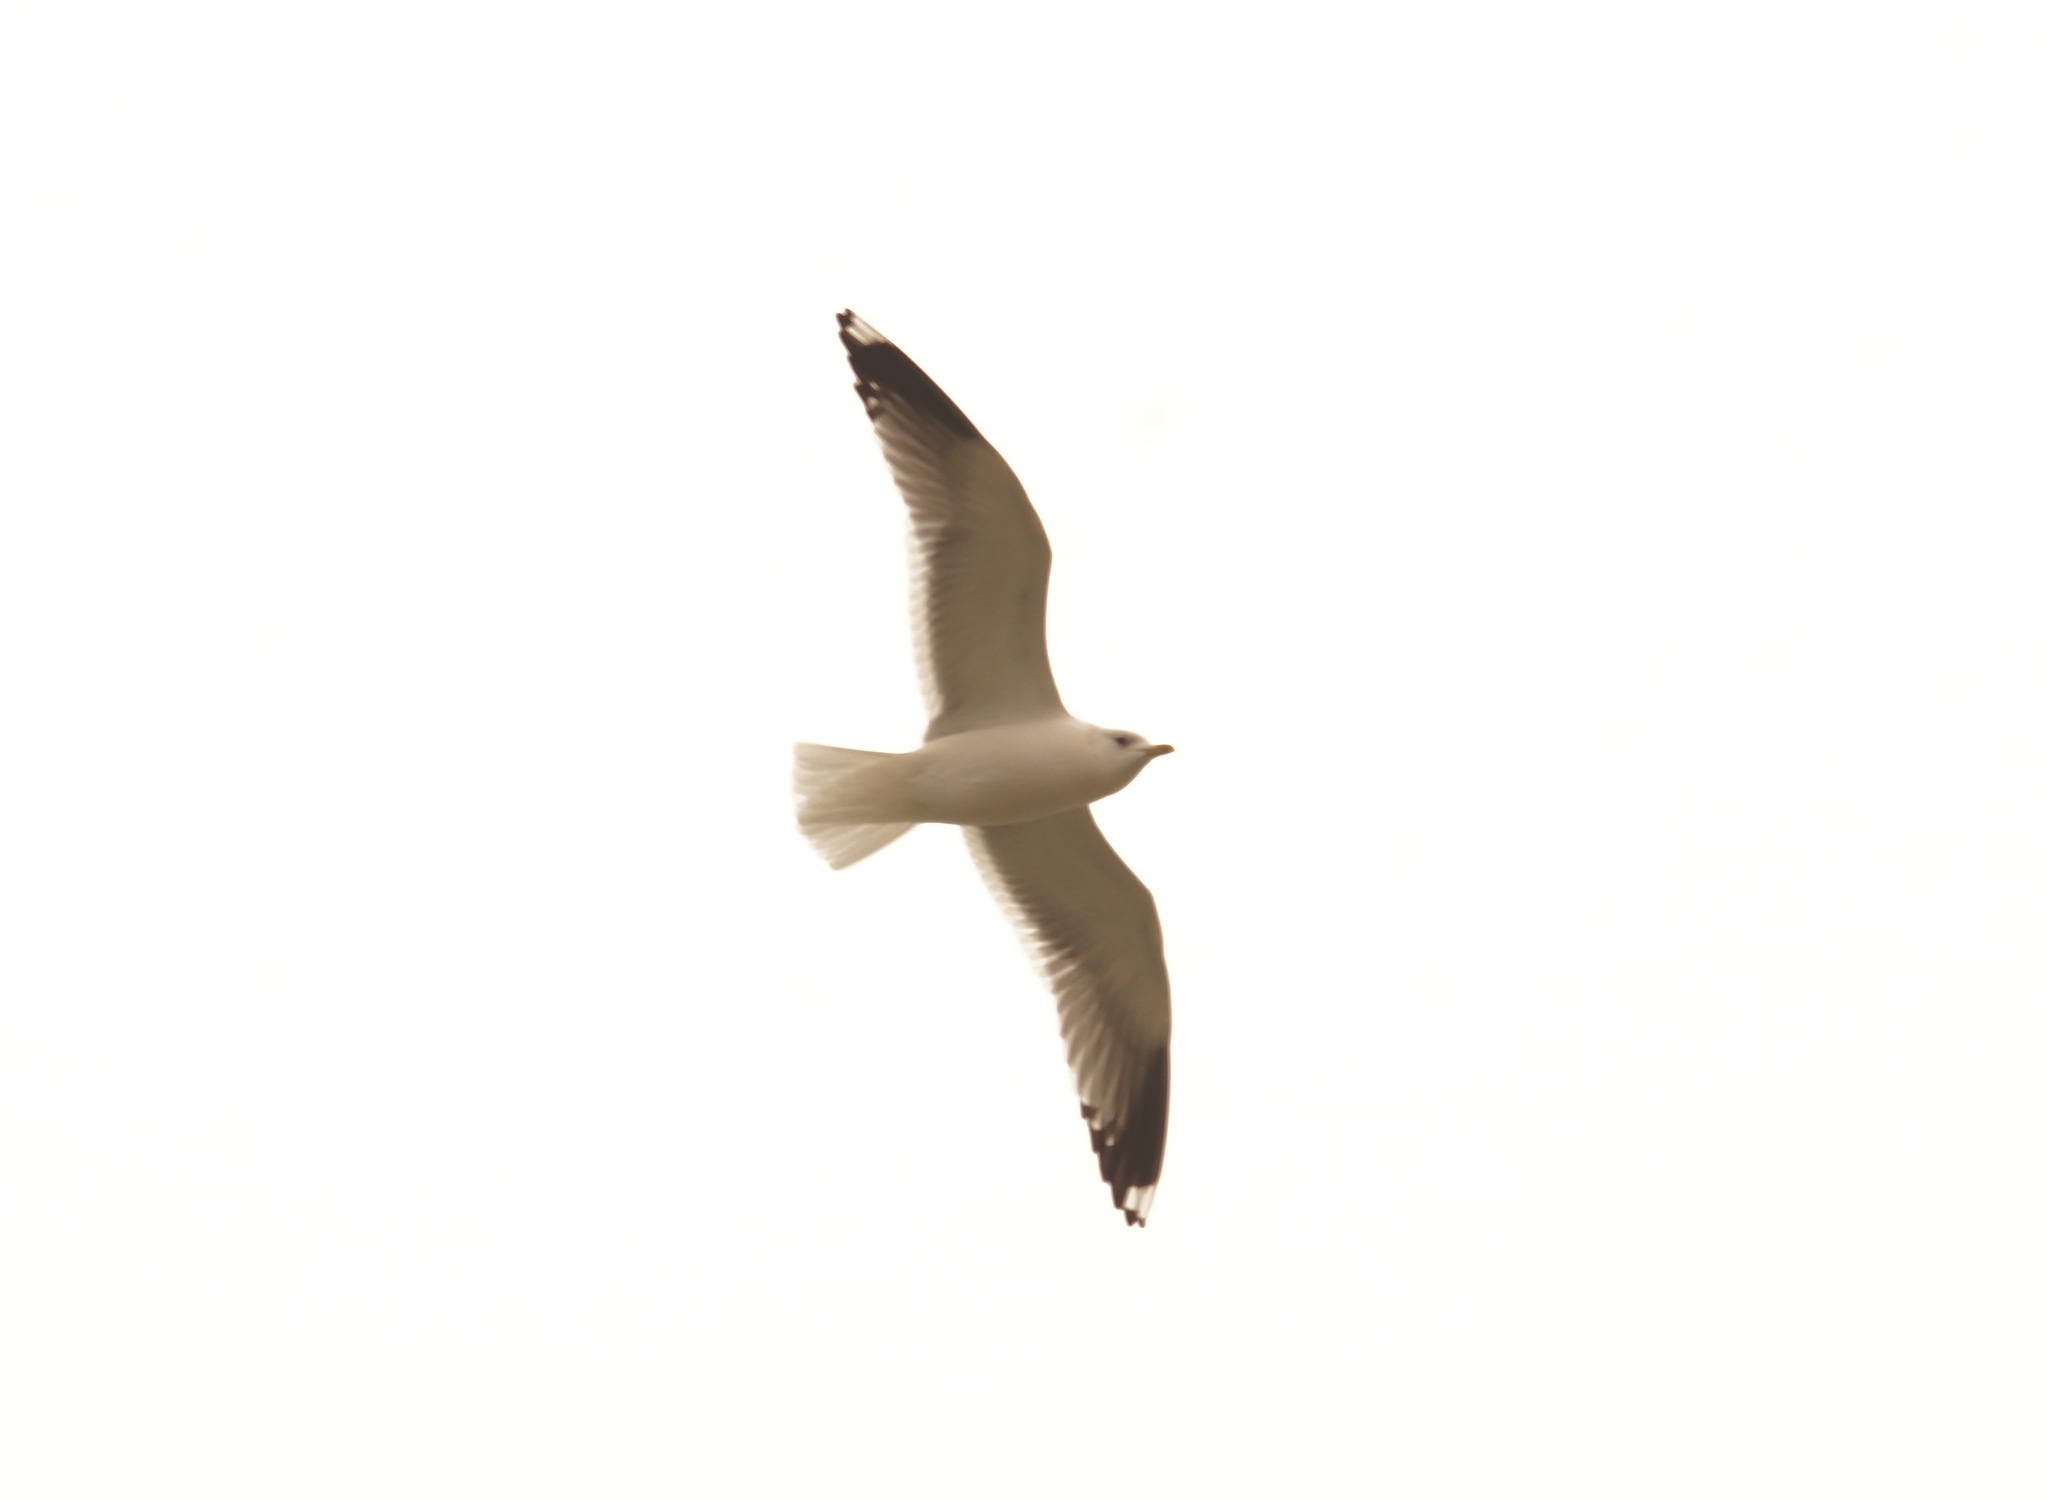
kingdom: Animalia
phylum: Chordata
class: Aves
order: Charadriiformes
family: Laridae
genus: Larus
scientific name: Larus canus
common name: Mew gull
